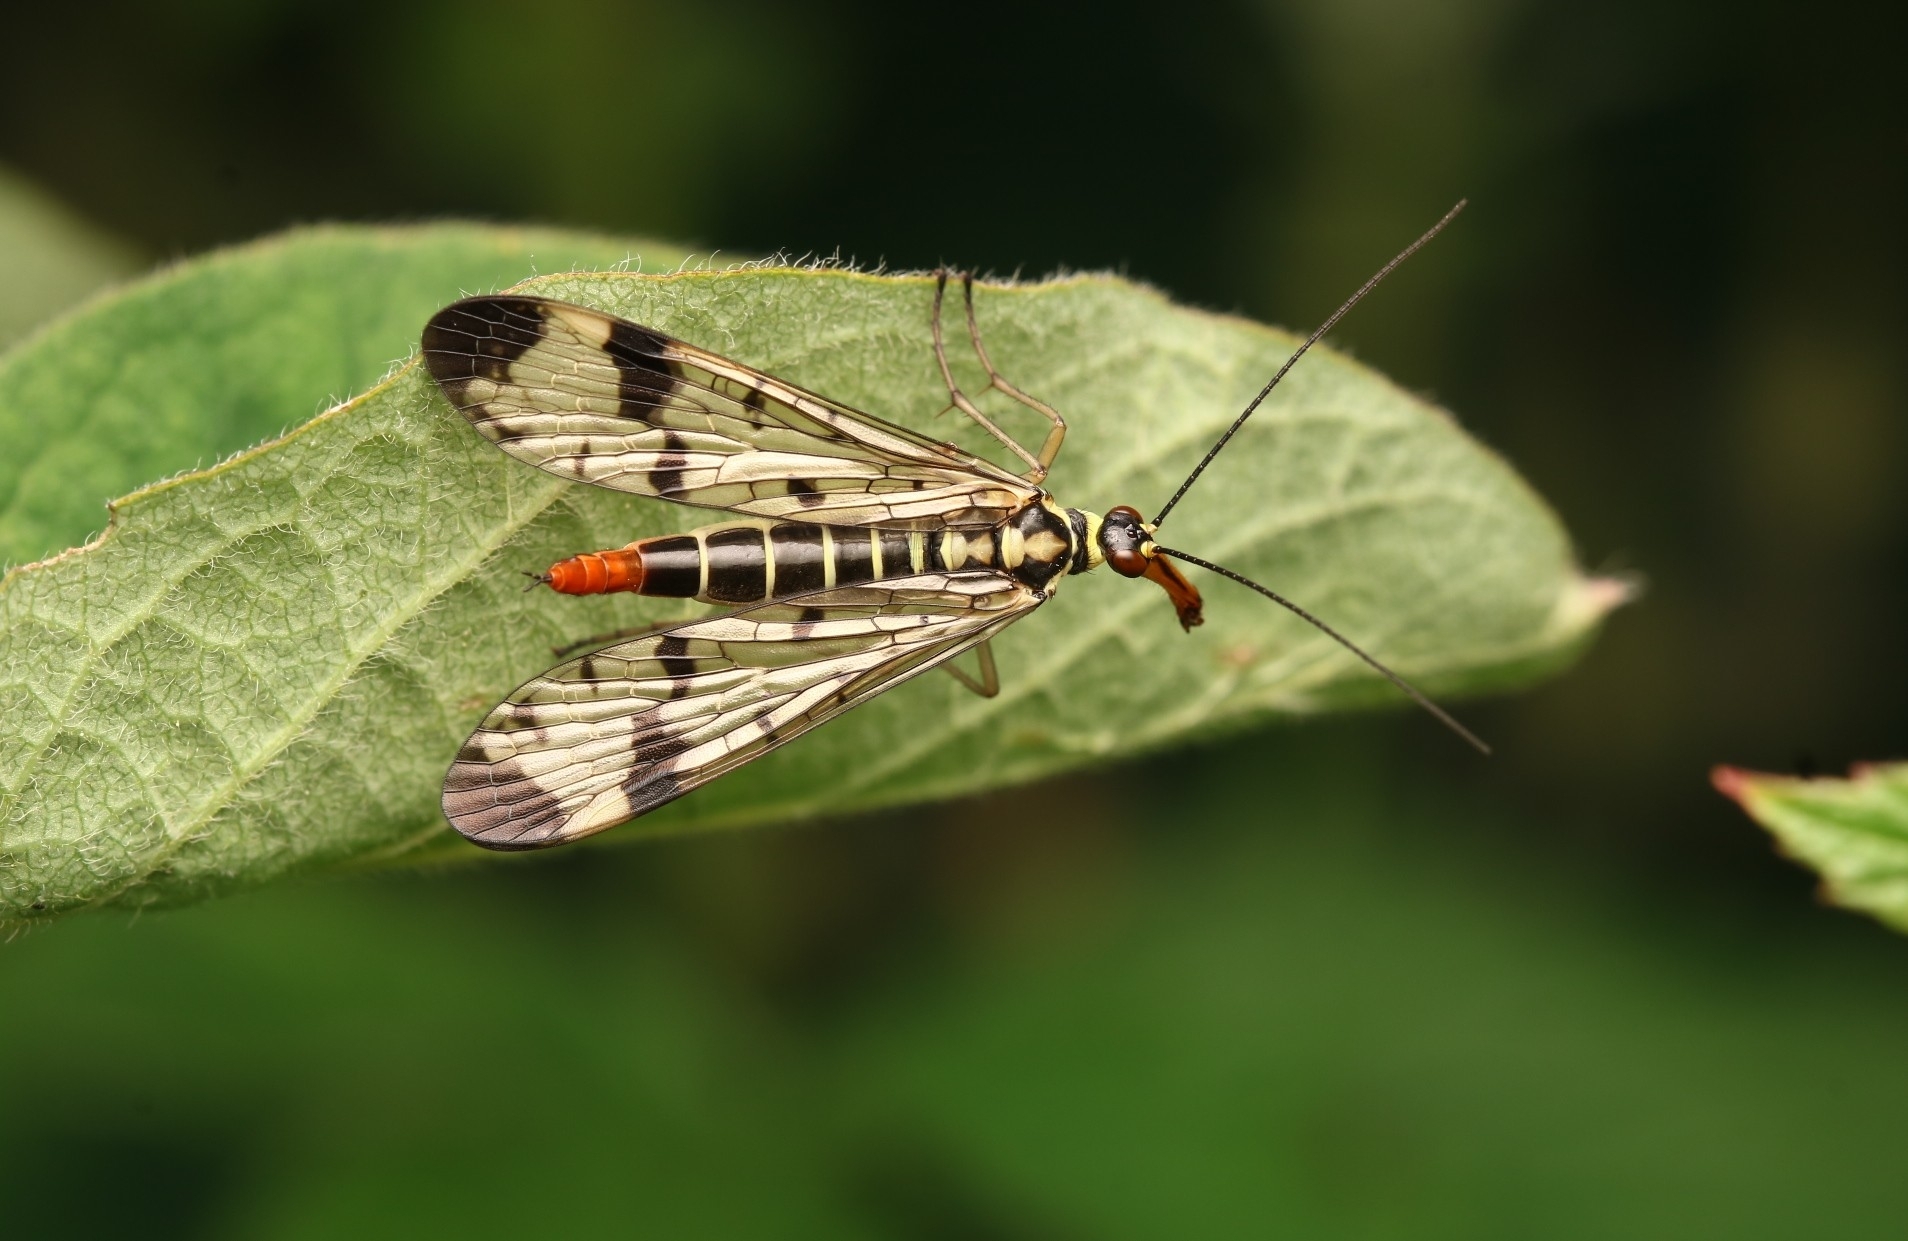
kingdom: Animalia
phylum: Arthropoda
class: Insecta
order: Mecoptera
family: Panorpidae
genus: Panorpa
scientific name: Panorpa communis
